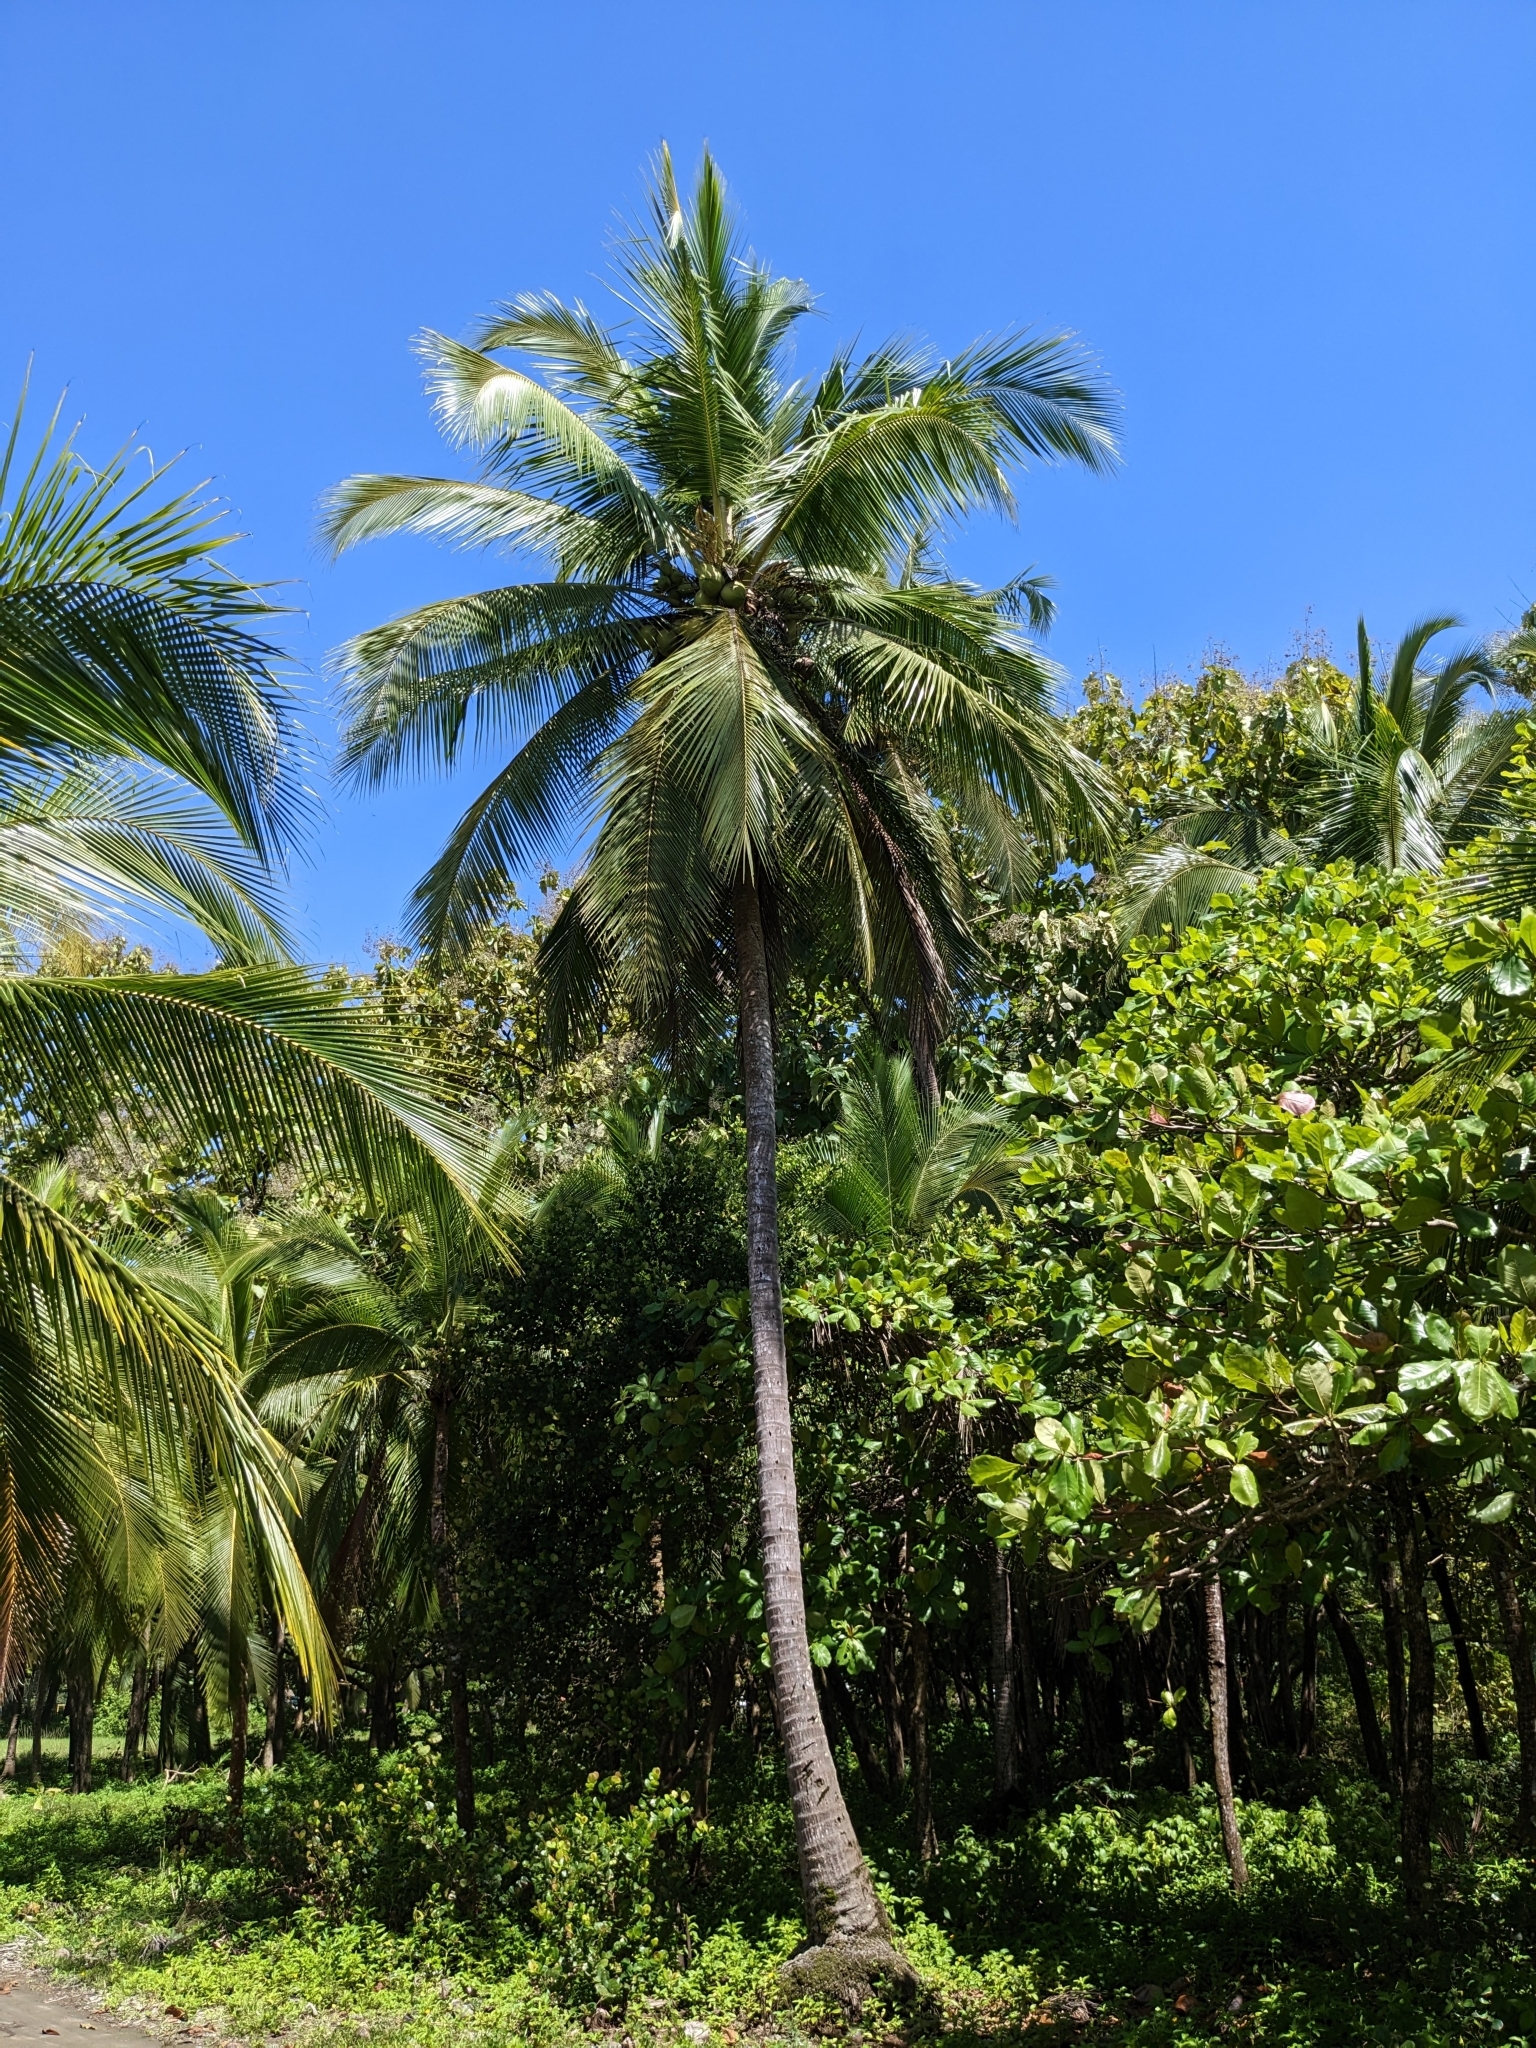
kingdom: Plantae
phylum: Tracheophyta
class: Liliopsida
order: Arecales
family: Arecaceae
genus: Cocos
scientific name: Cocos nucifera
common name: Coconut palm
